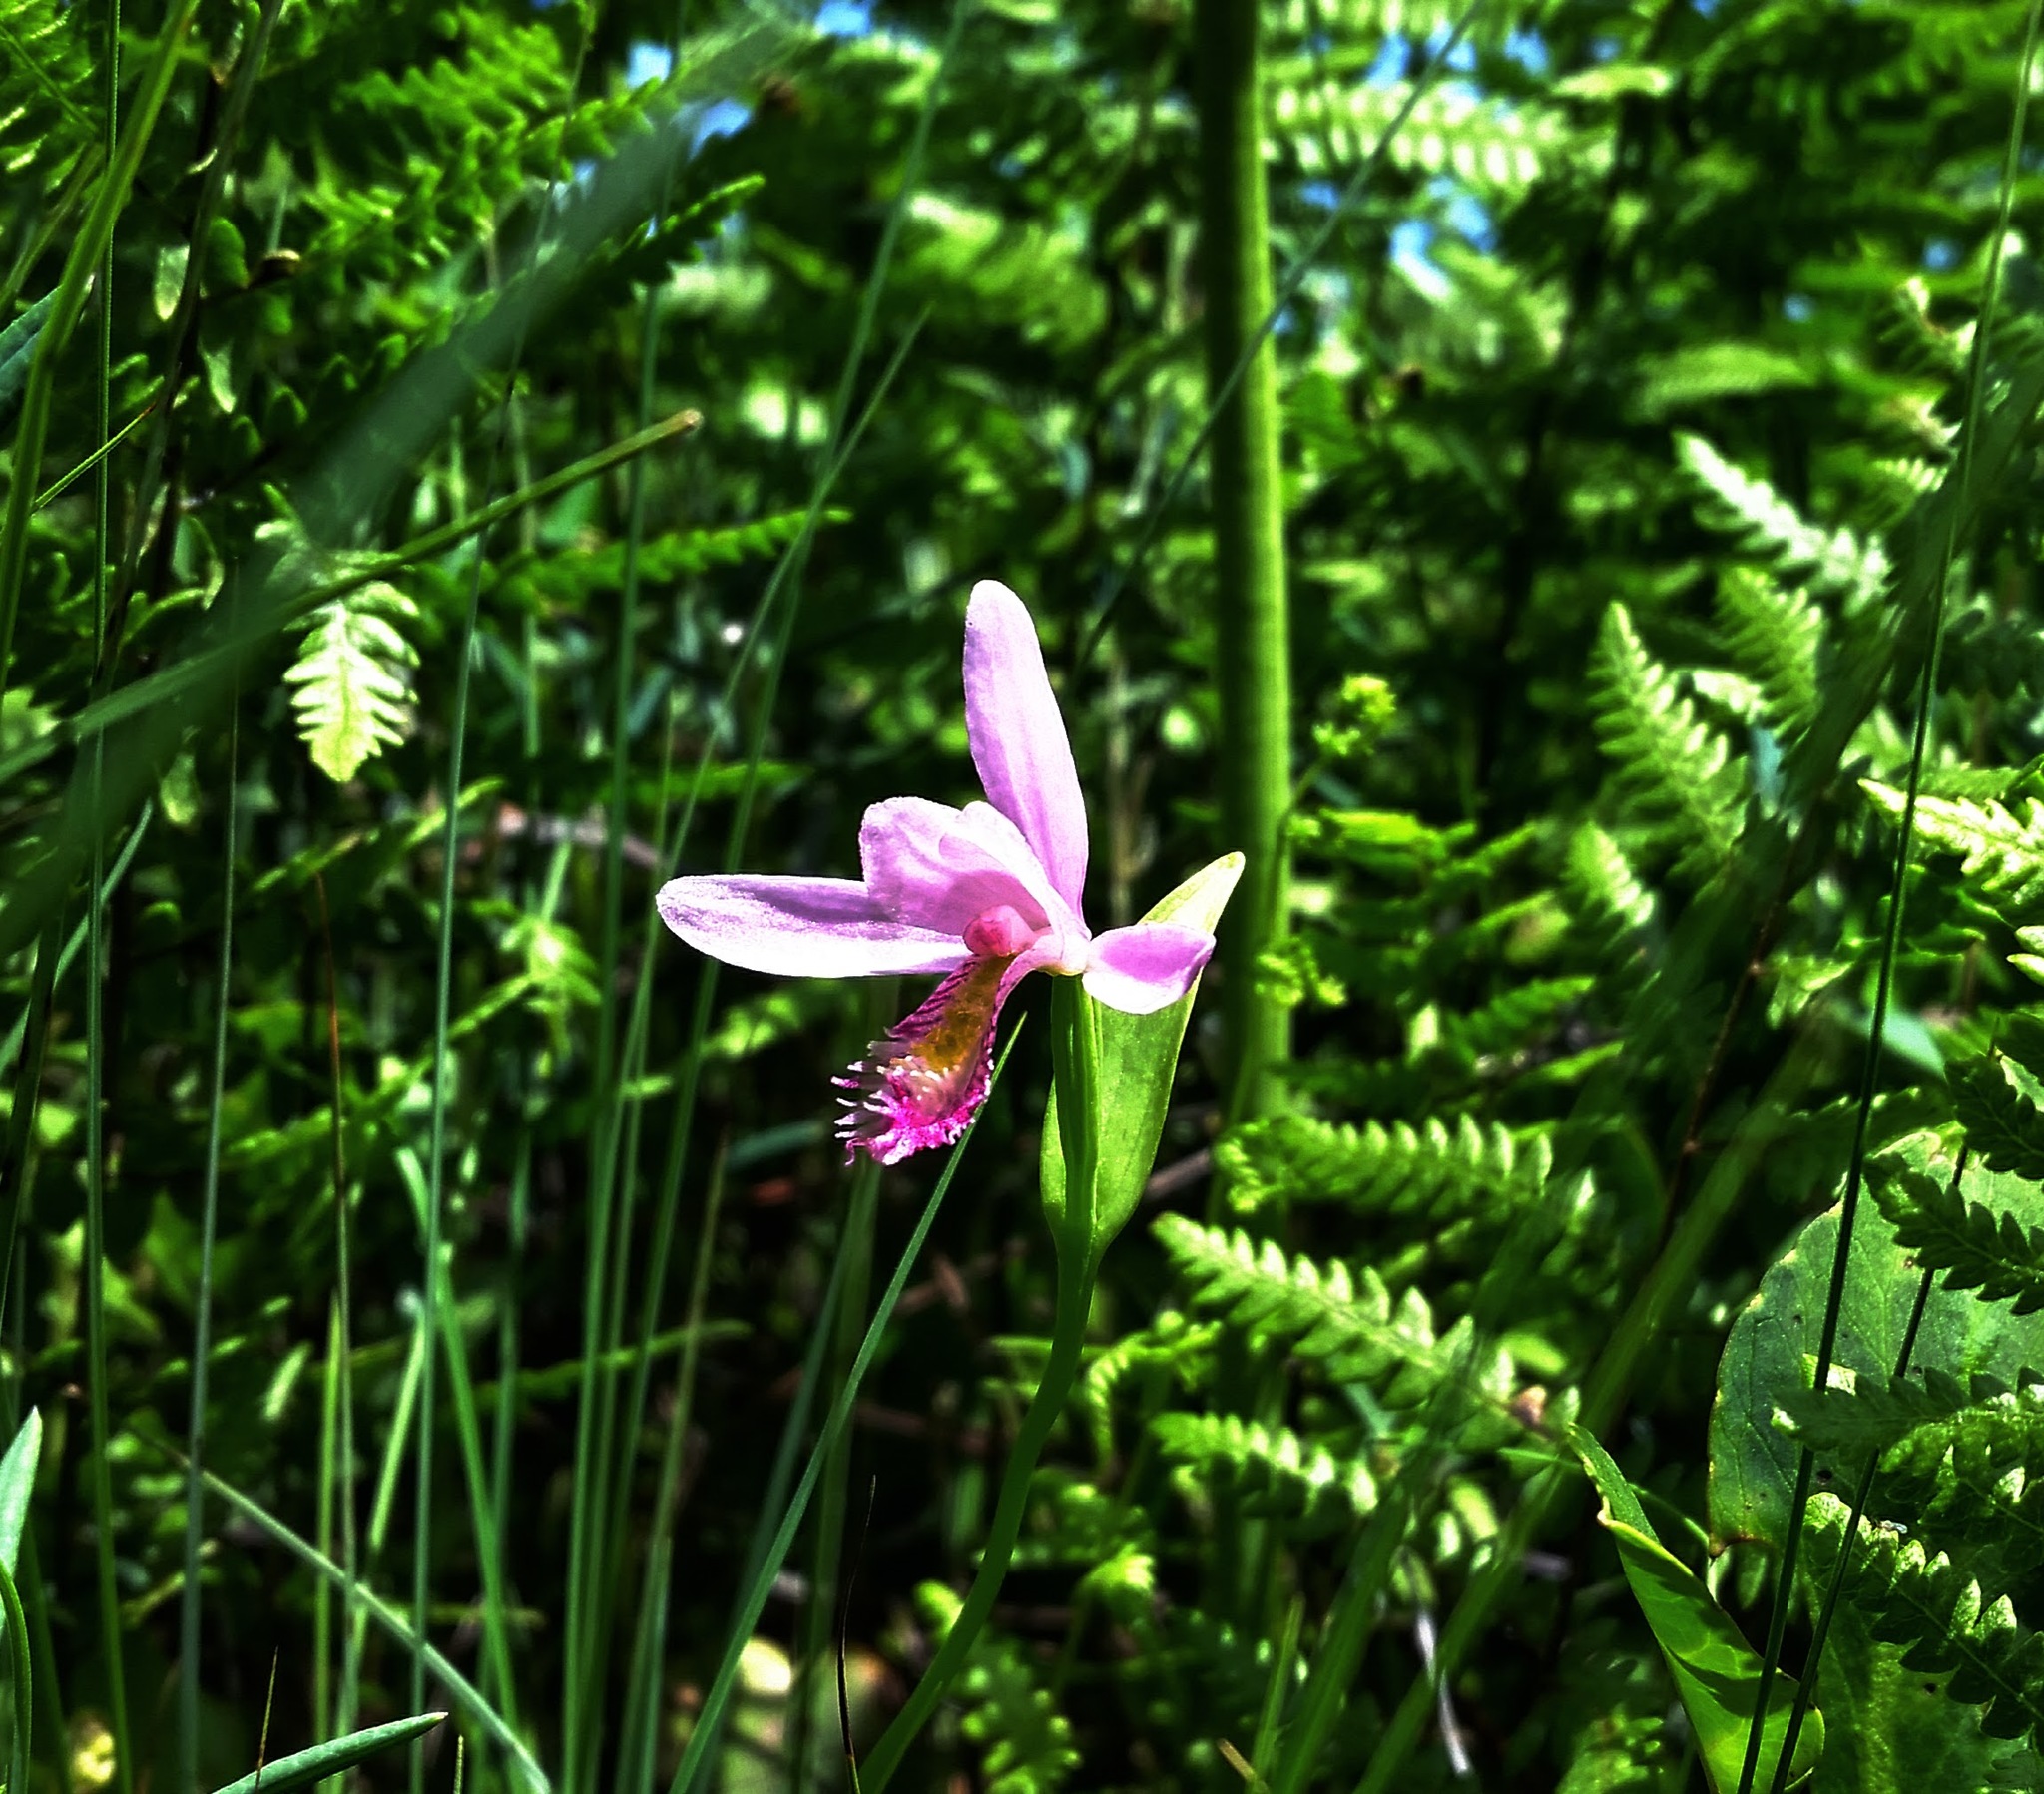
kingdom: Plantae
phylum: Tracheophyta
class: Liliopsida
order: Asparagales
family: Orchidaceae
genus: Pogonia
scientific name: Pogonia ophioglossoides
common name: Rose pogonia
